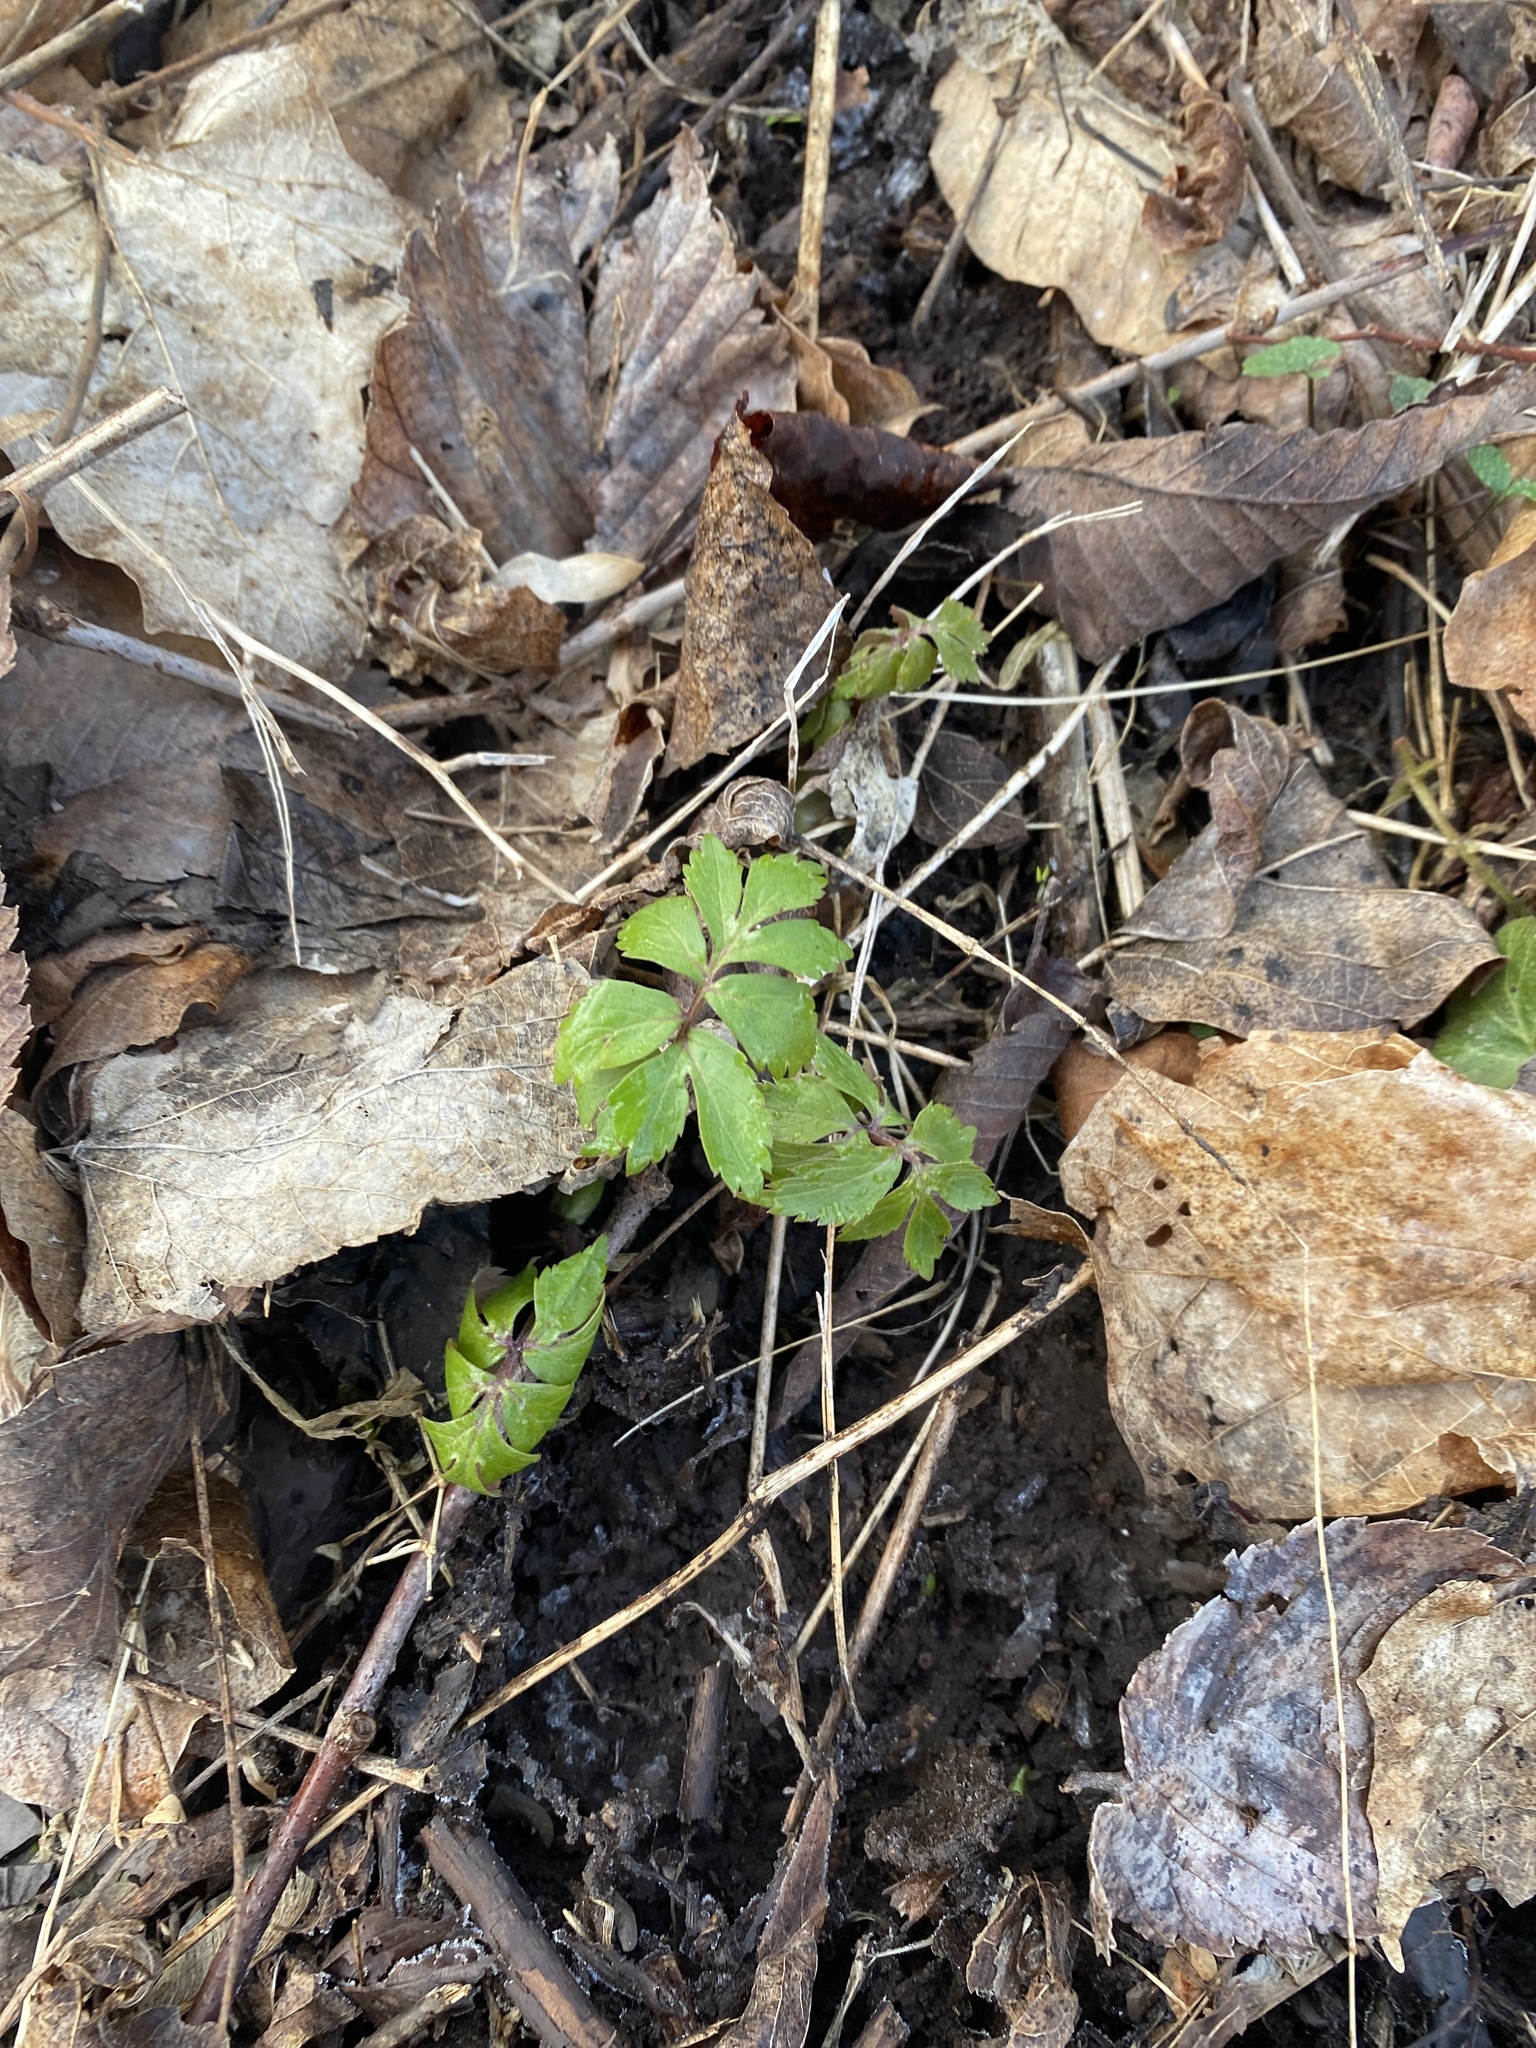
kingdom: Plantae
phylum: Tracheophyta
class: Magnoliopsida
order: Boraginales
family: Hydrophyllaceae
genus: Hydrophyllum
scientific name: Hydrophyllum virginianum
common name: Virginia waterleaf
